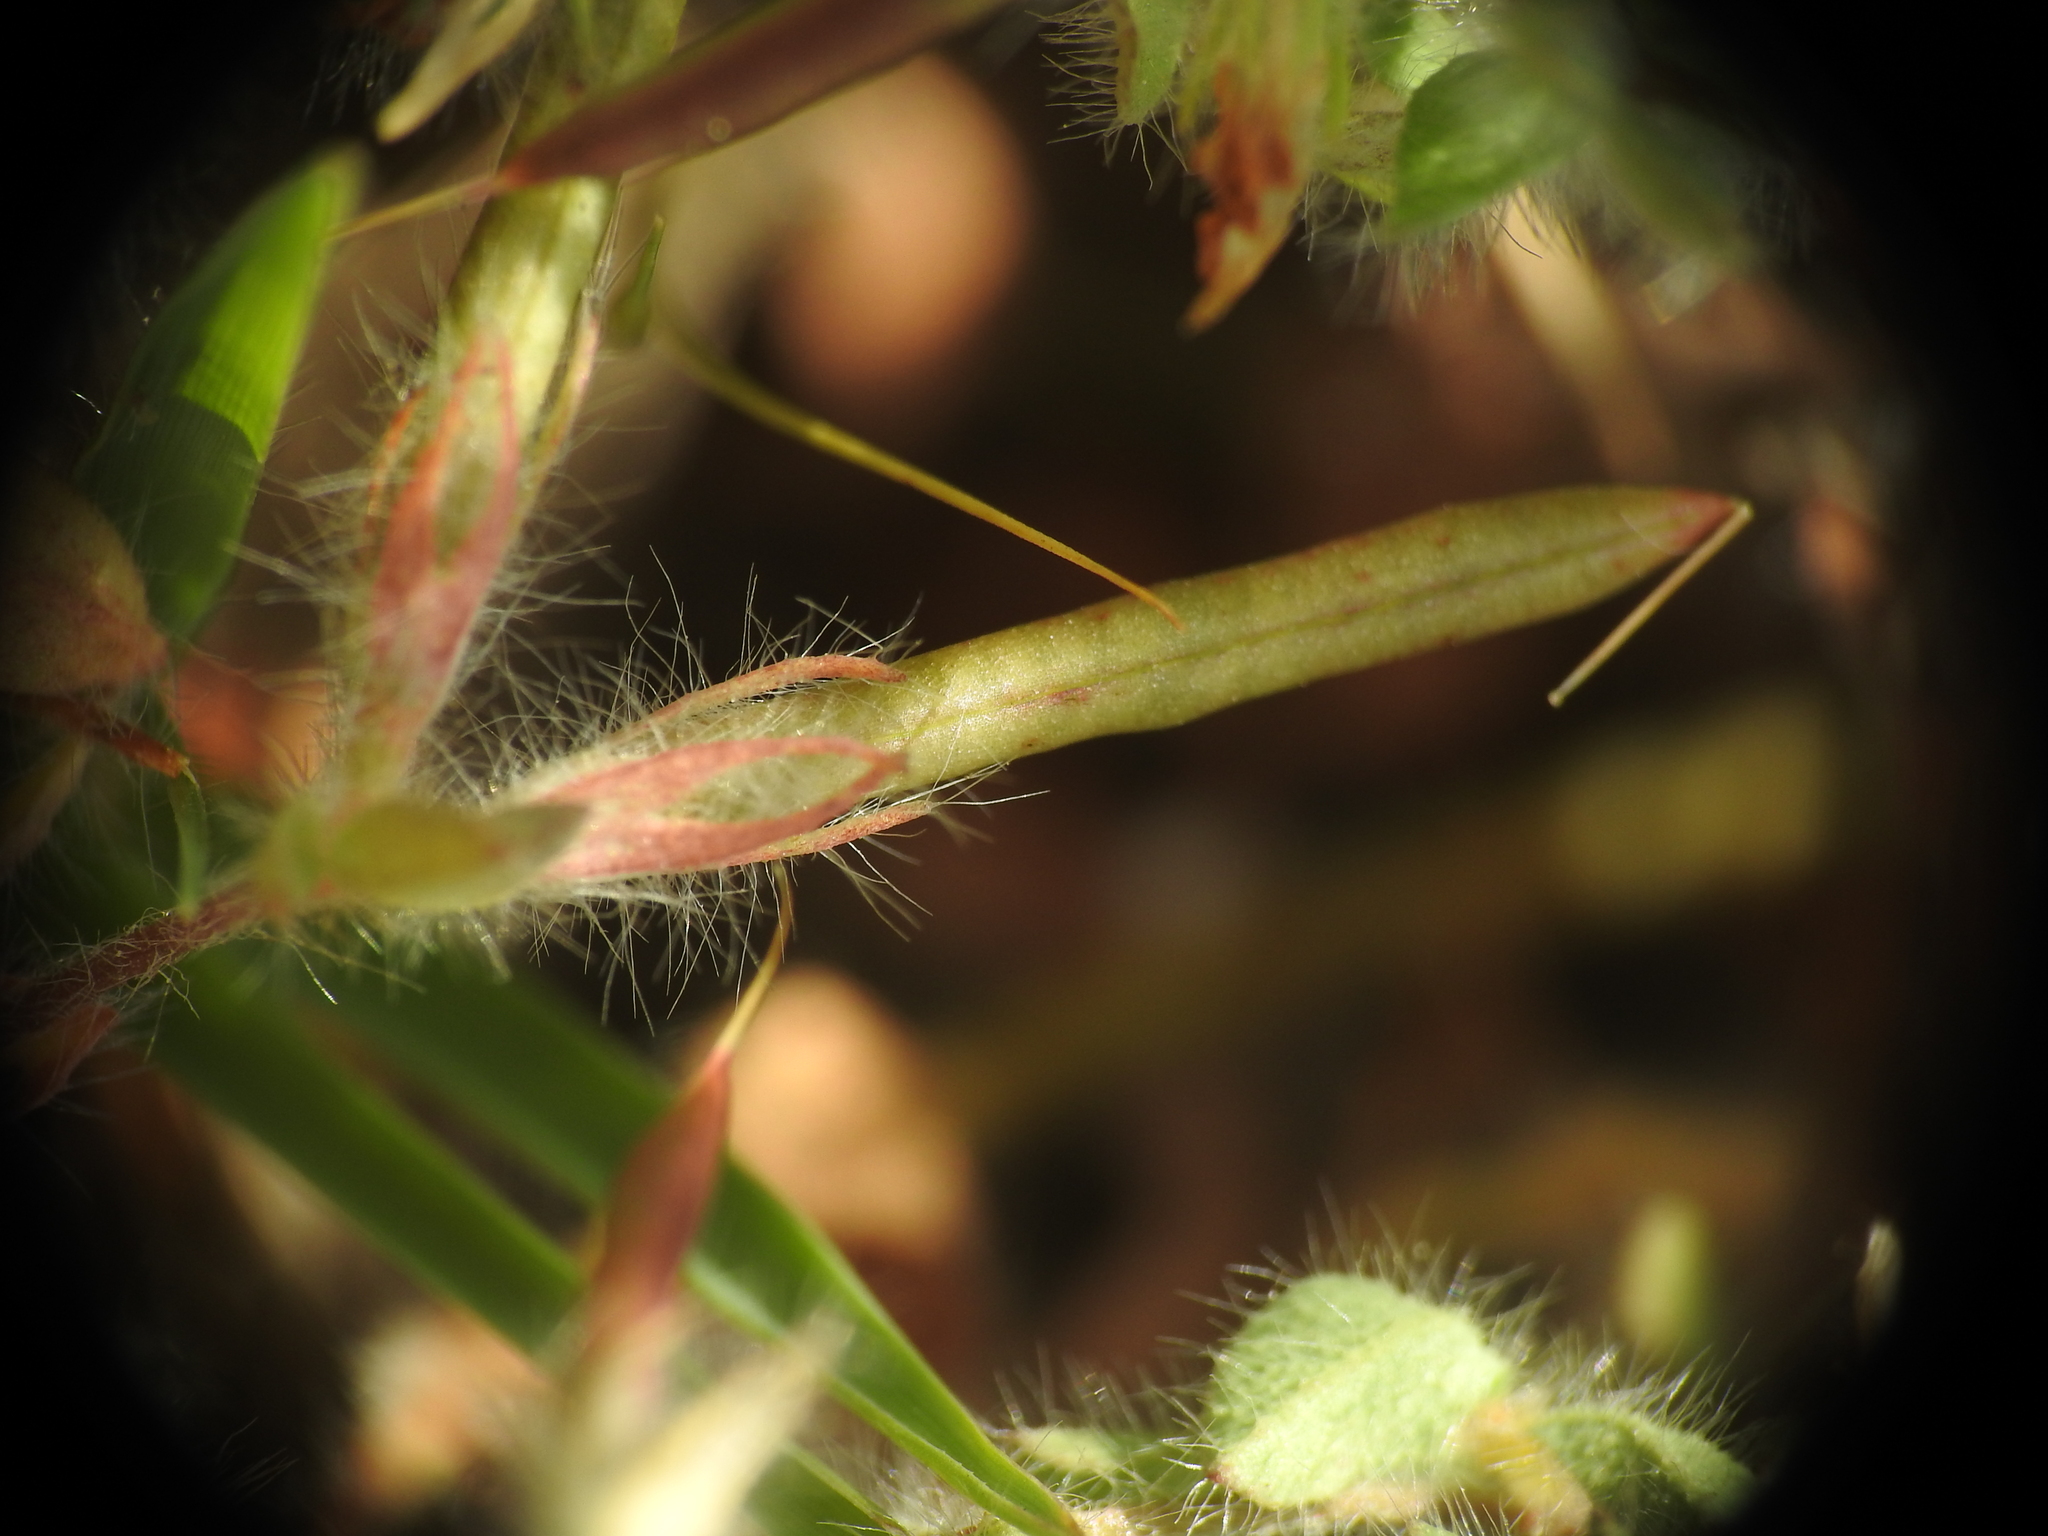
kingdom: Plantae
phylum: Tracheophyta
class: Magnoliopsida
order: Fabales
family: Fabaceae
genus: Lotus
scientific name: Lotus angustissimus
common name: Slender bird's-foot trefoil
